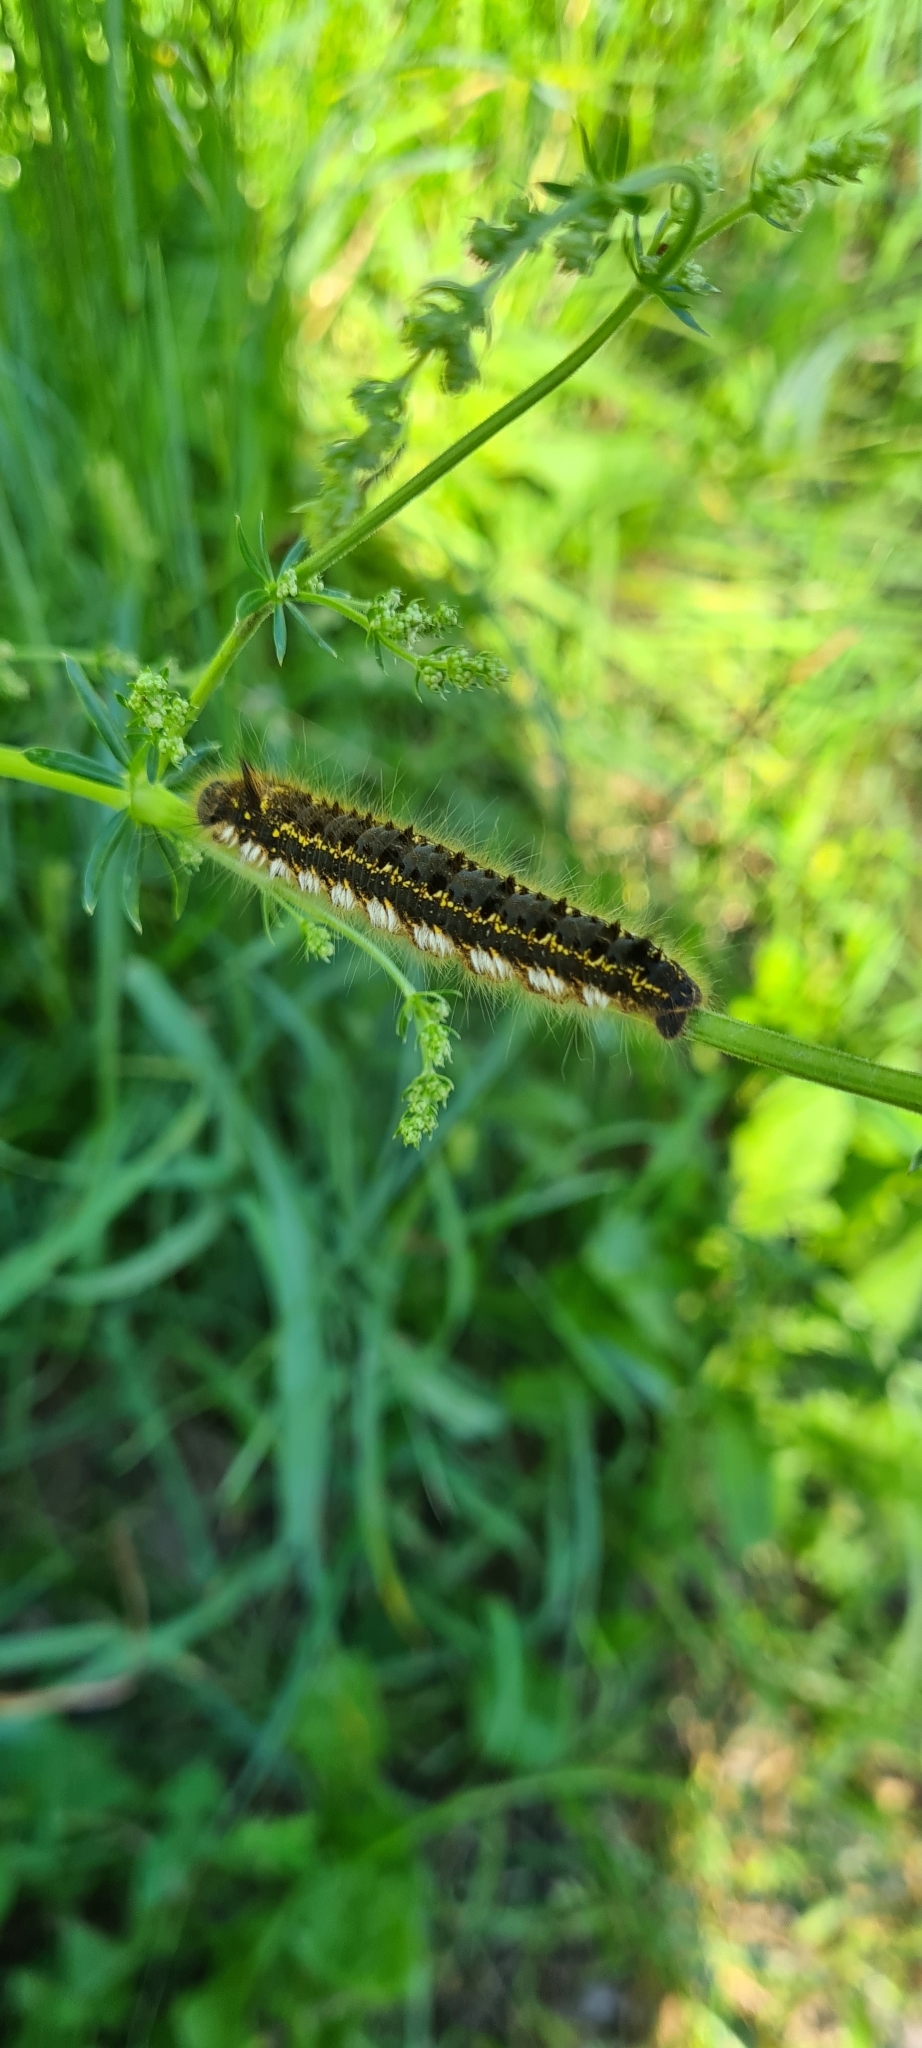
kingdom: Animalia
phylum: Arthropoda
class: Insecta
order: Lepidoptera
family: Lasiocampidae
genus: Euthrix
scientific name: Euthrix potatoria
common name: Drinker
